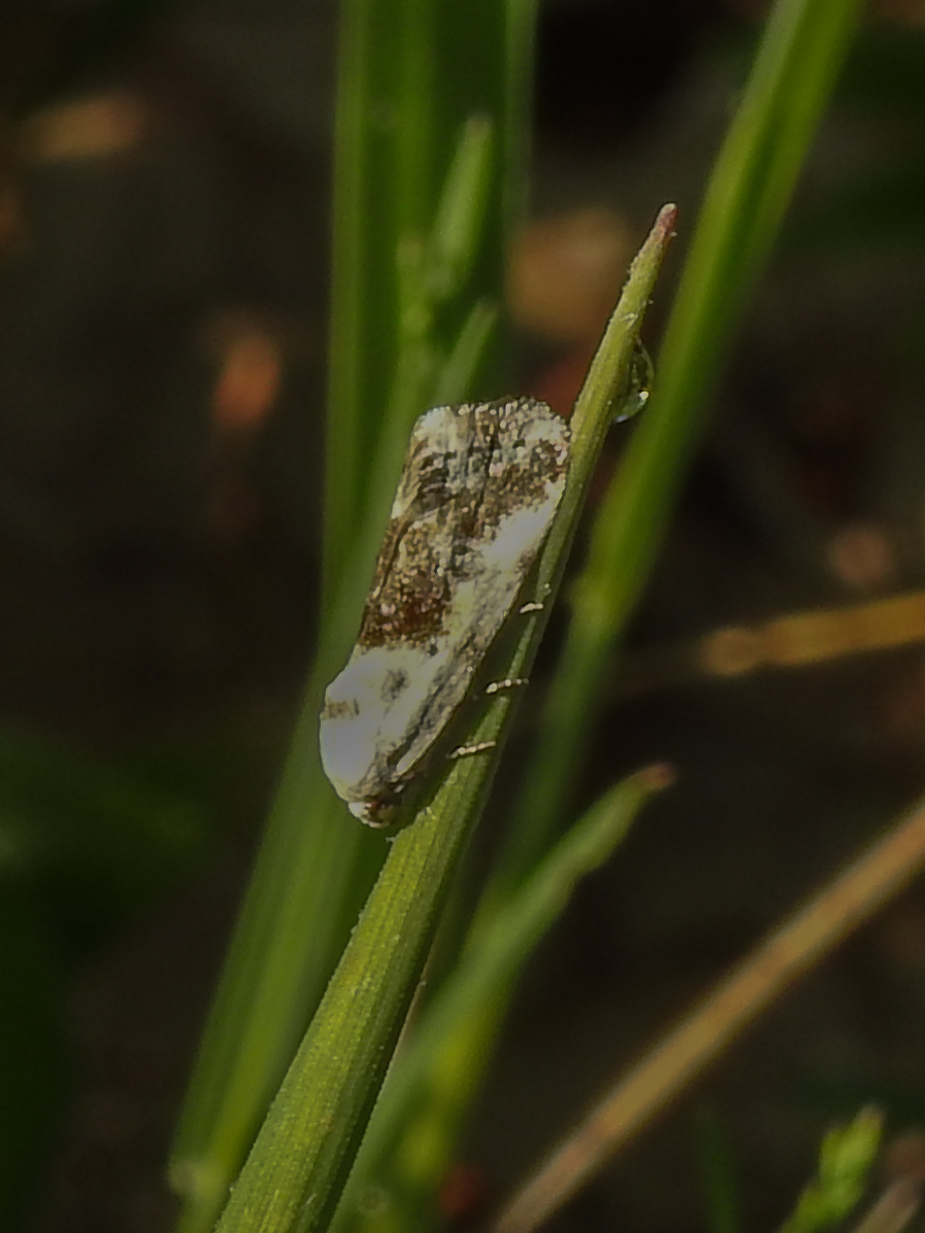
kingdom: Animalia
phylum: Arthropoda
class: Insecta
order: Lepidoptera
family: Noctuidae
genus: Acontia
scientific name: Acontia candefacta
